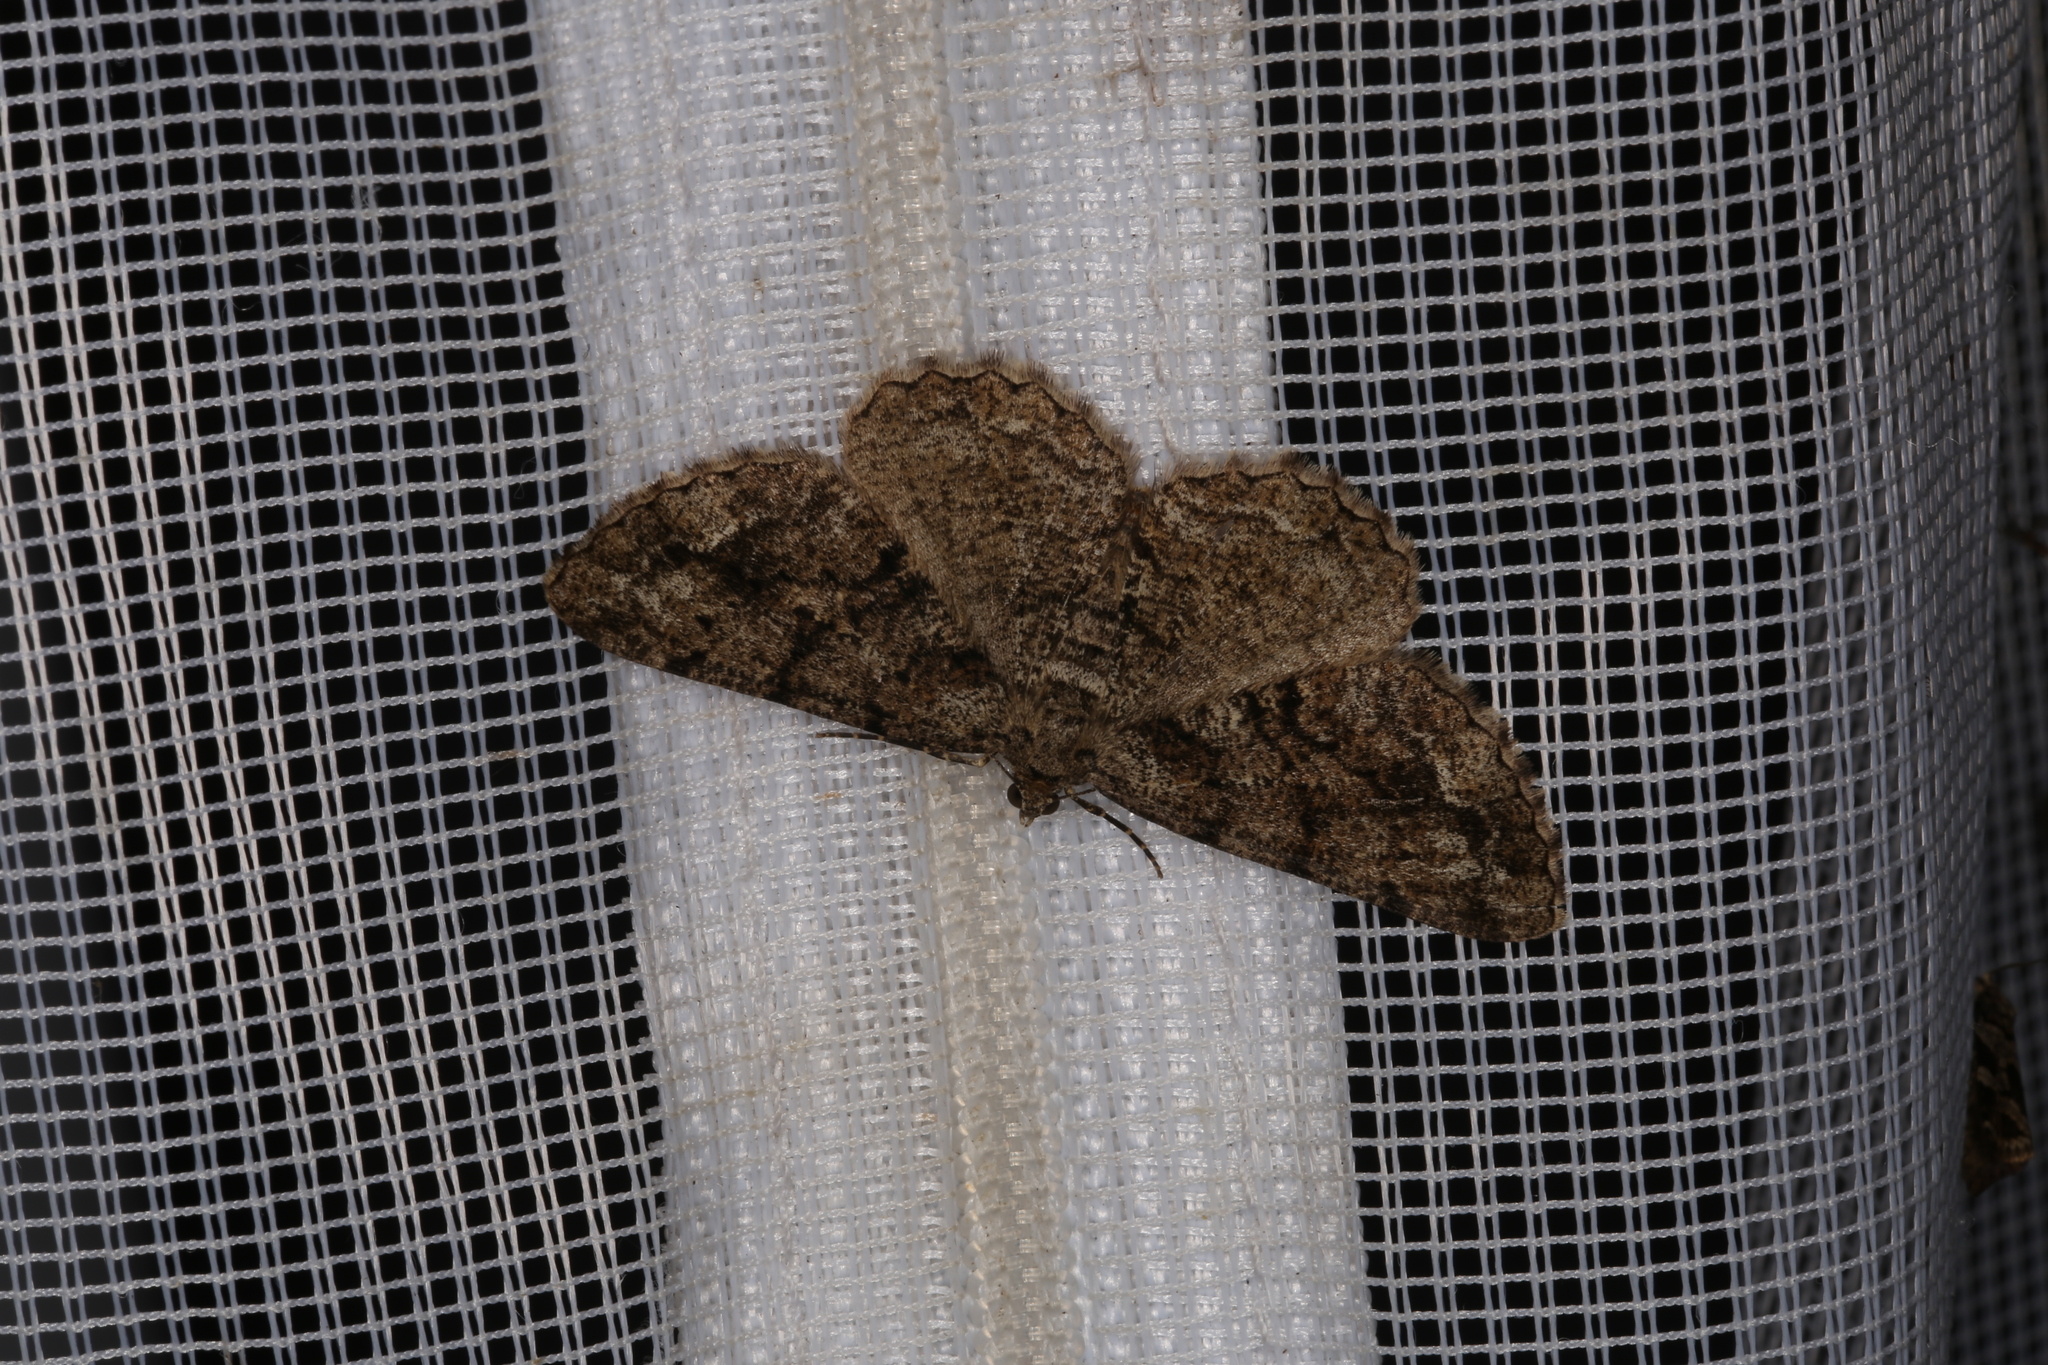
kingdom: Animalia
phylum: Arthropoda
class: Insecta
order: Lepidoptera
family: Geometridae
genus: Peribatodes
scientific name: Peribatodes secundaria
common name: Feathered beauty
